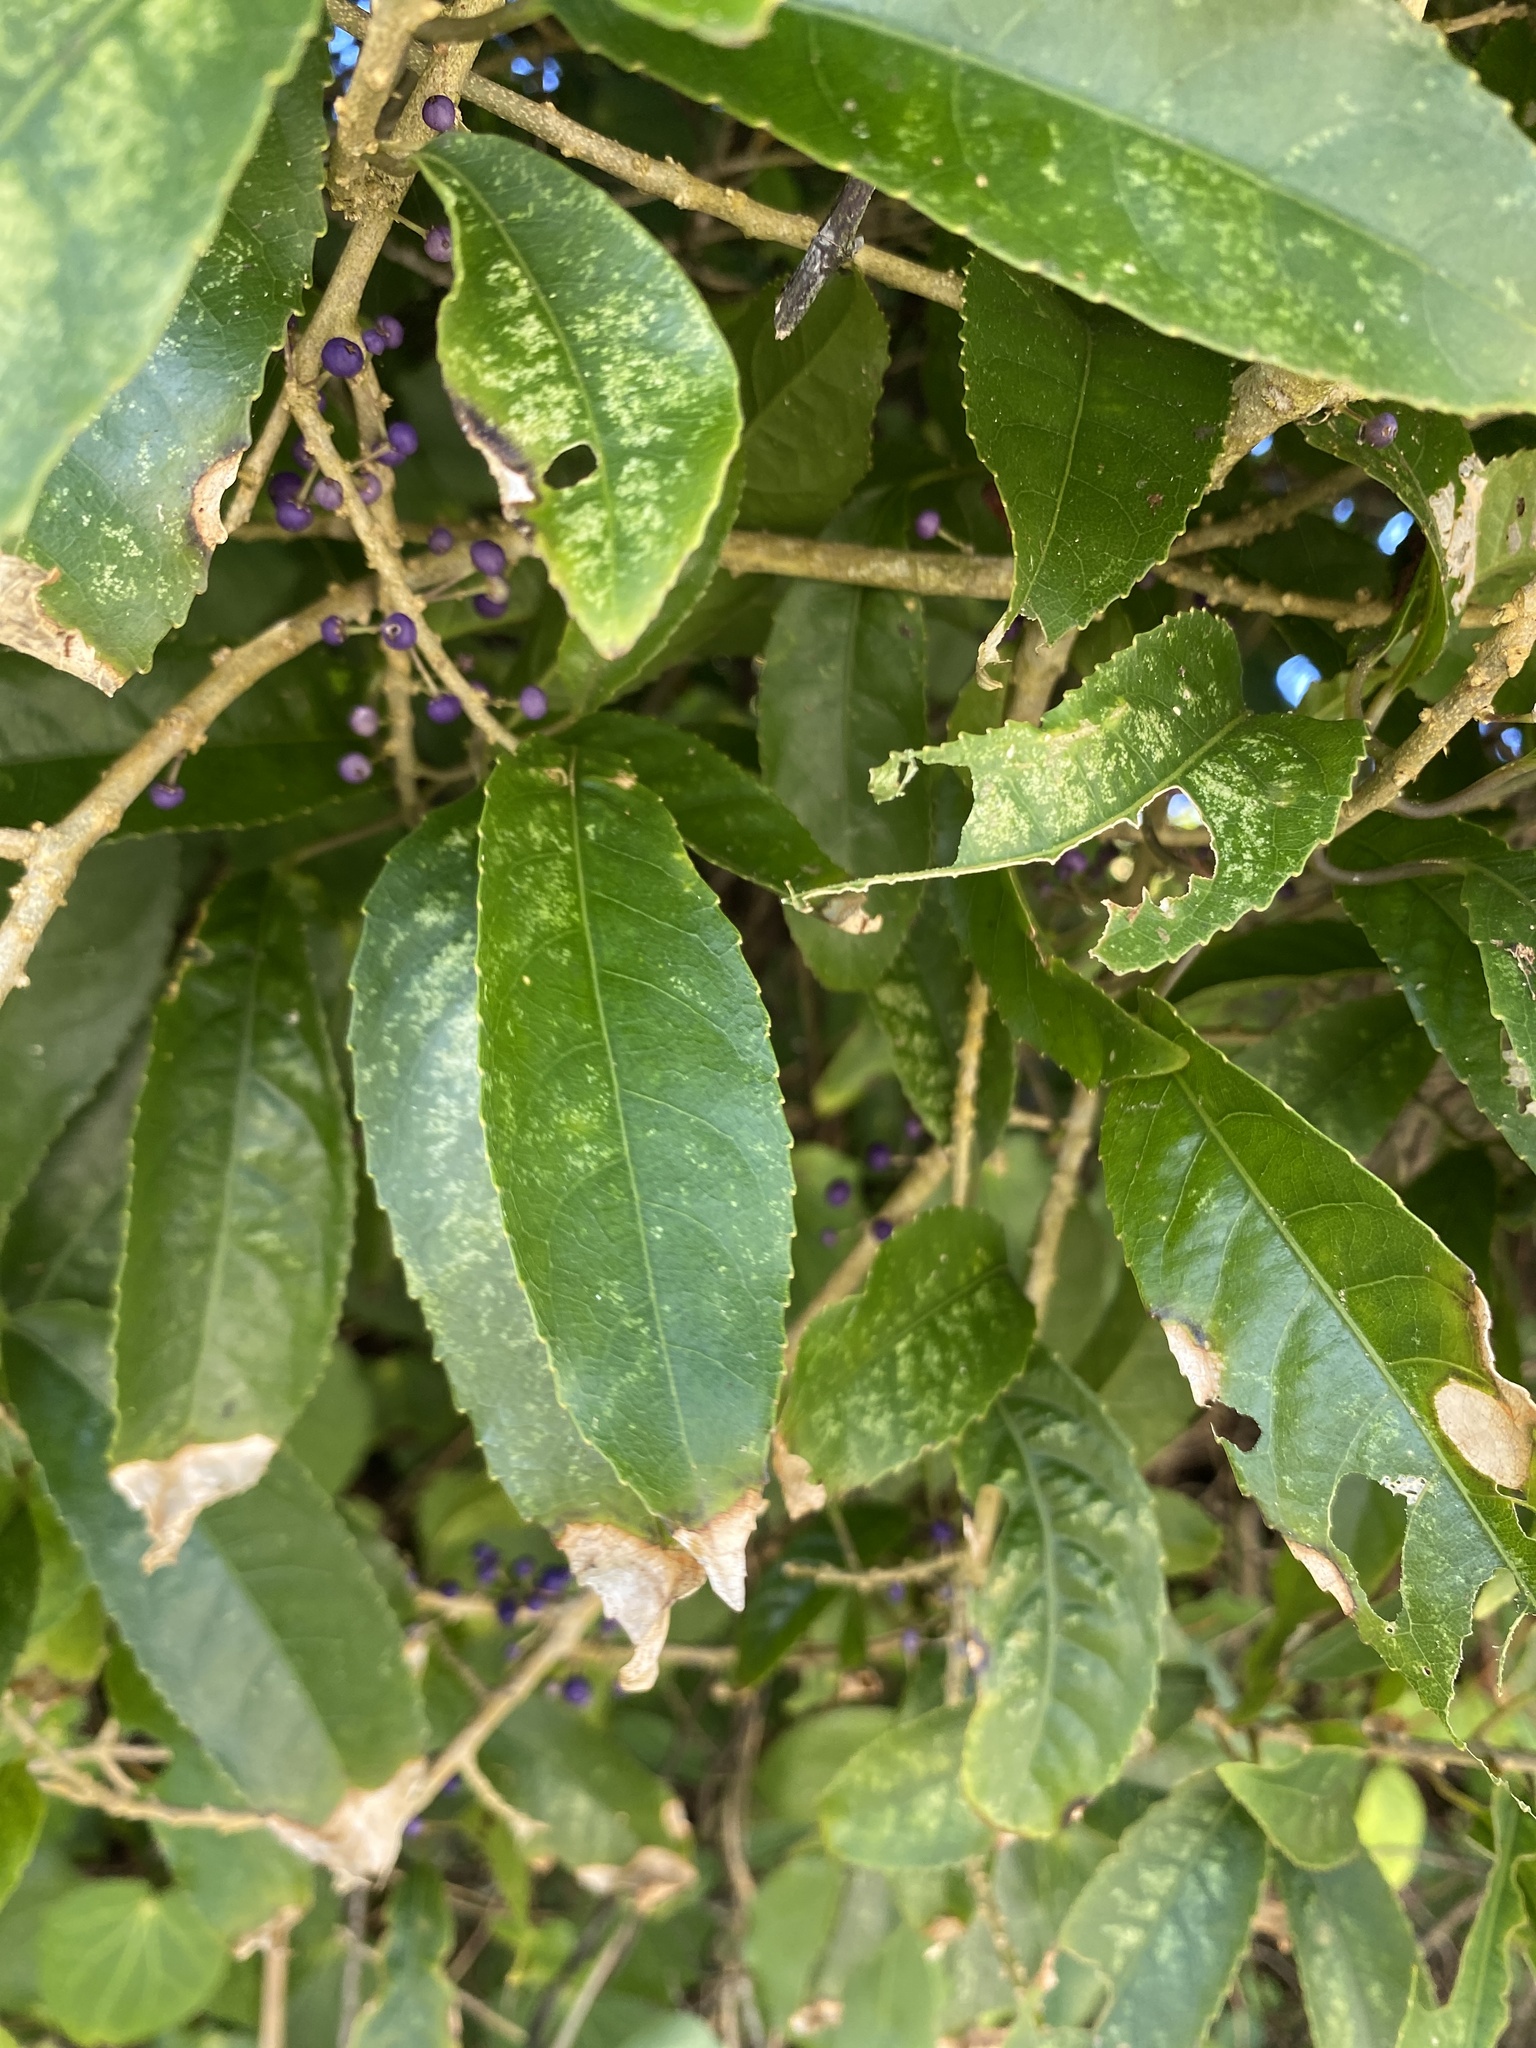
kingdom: Plantae
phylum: Tracheophyta
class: Magnoliopsida
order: Malpighiales
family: Violaceae
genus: Melicytus
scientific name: Melicytus ramiflorus
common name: Mahoe
